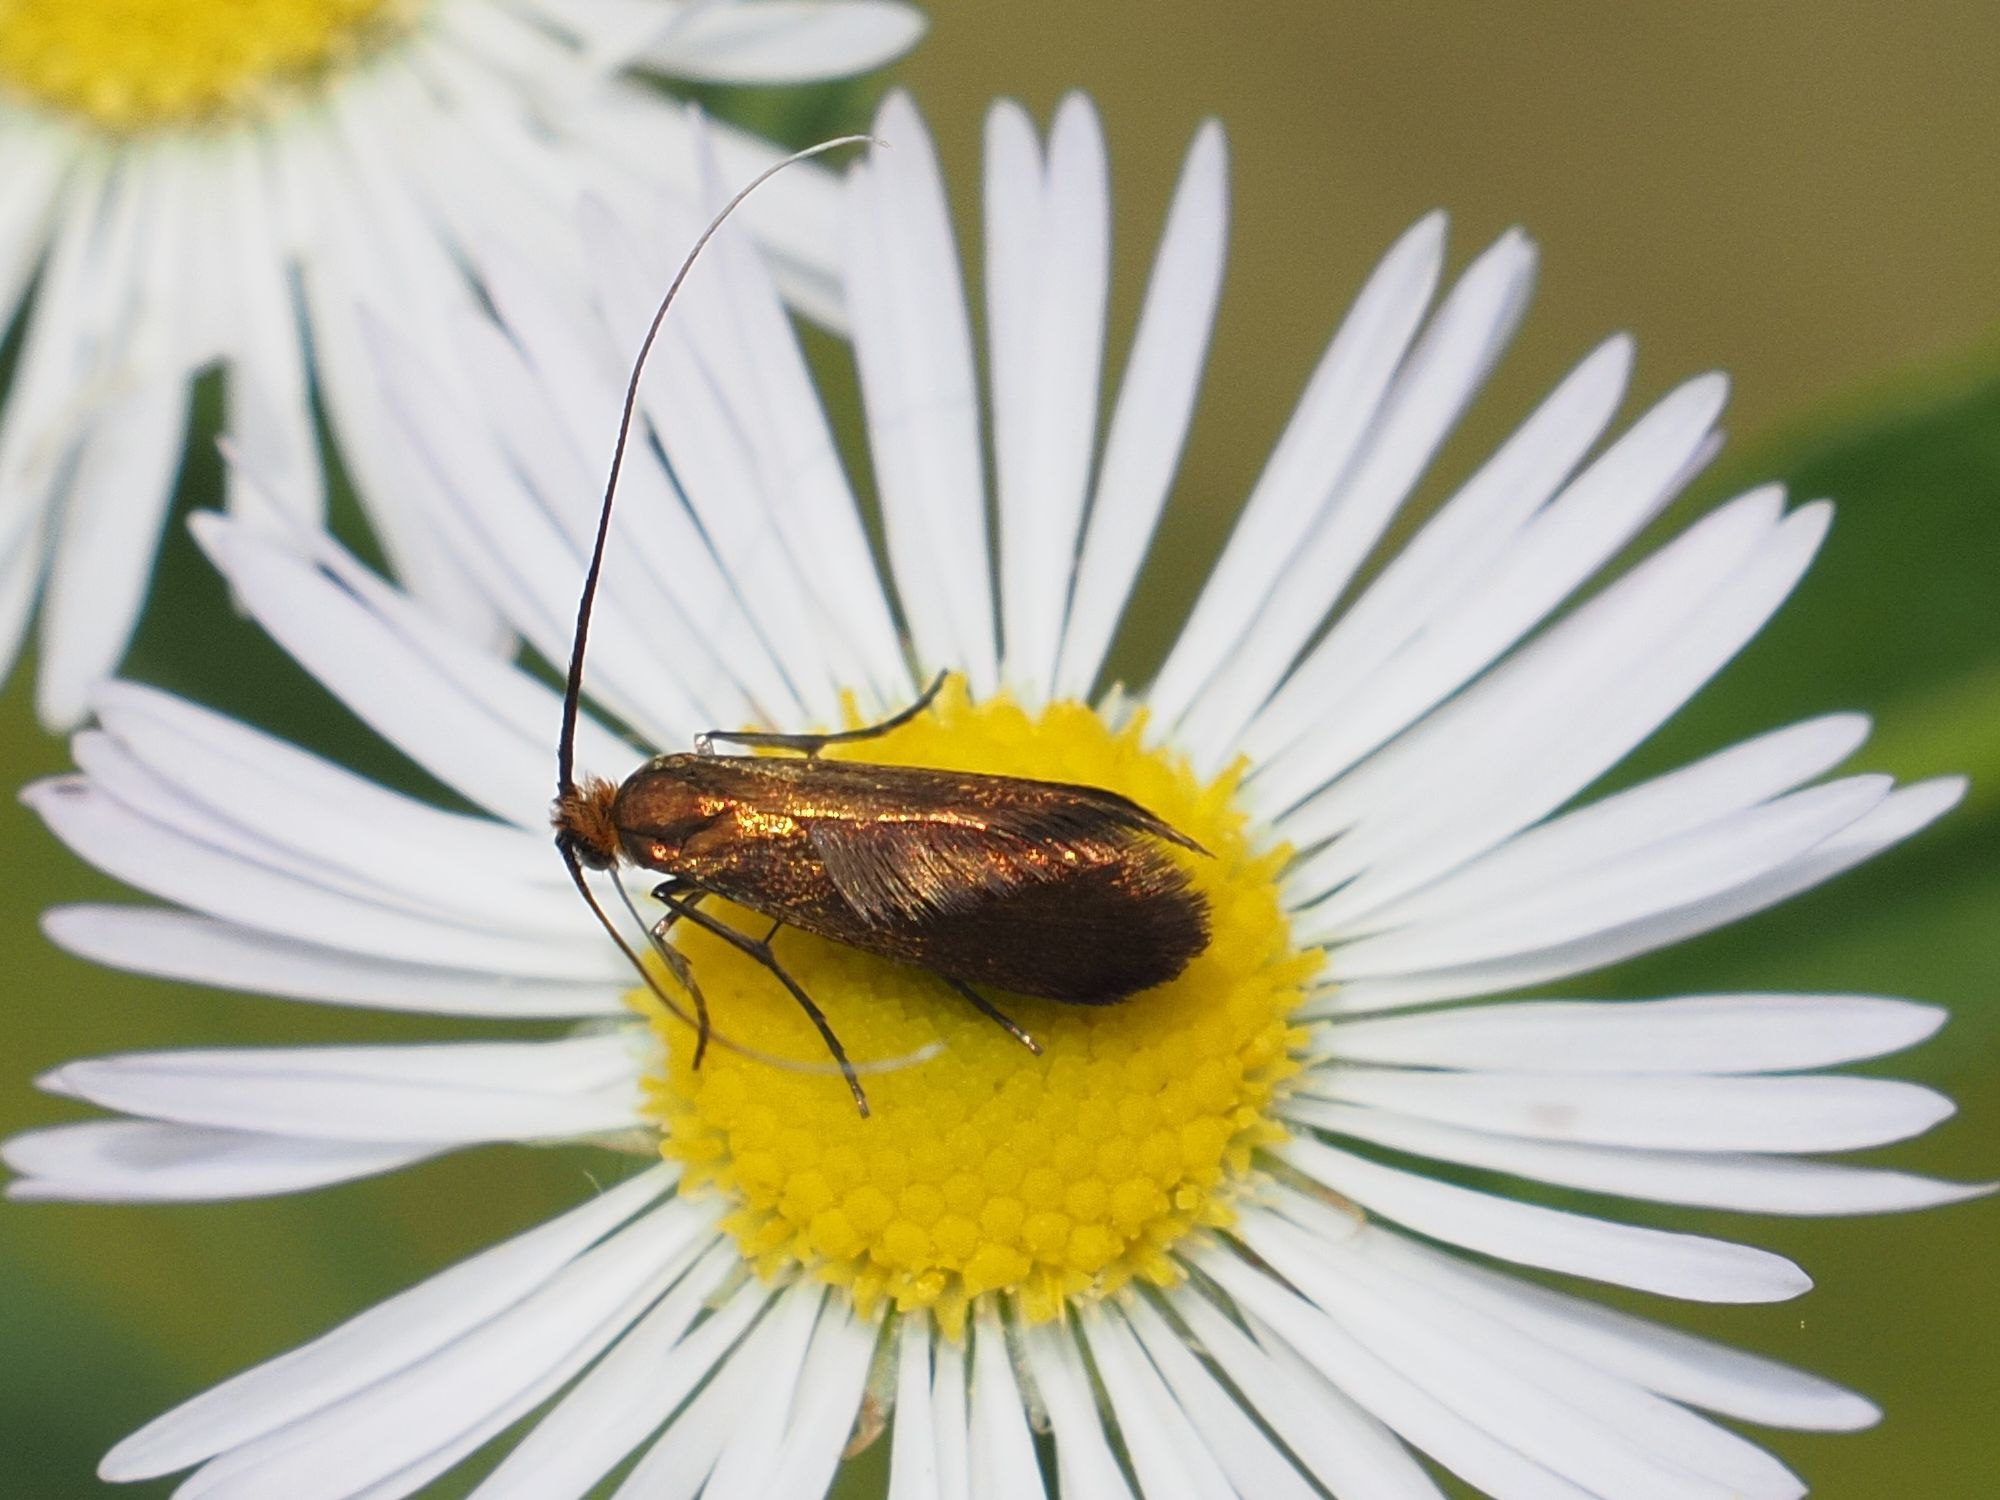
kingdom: Animalia
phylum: Arthropoda
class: Insecta
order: Lepidoptera
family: Adelidae
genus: Adela
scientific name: Adela violella
